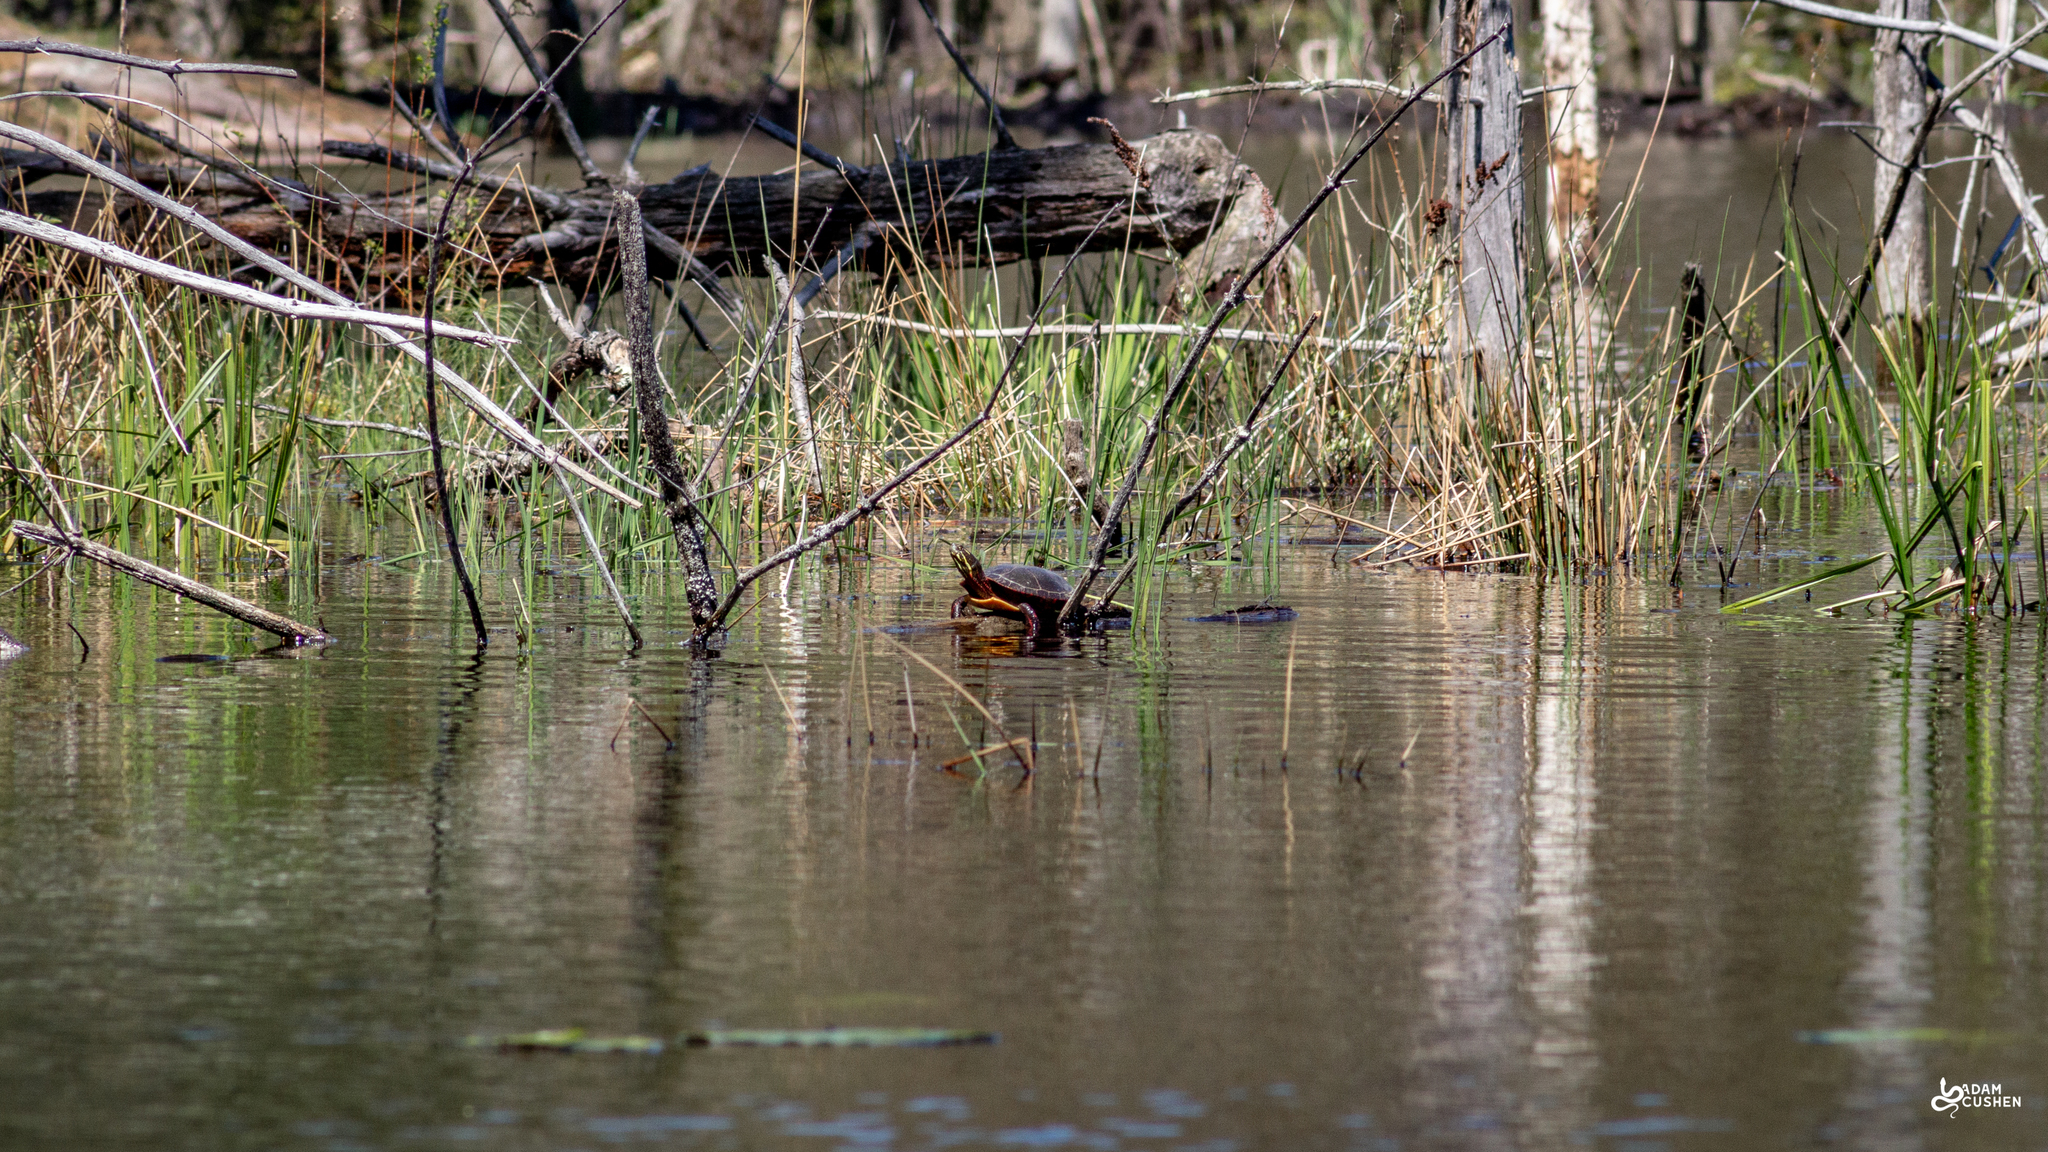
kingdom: Animalia
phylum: Chordata
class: Testudines
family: Emydidae
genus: Chrysemys
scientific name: Chrysemys picta
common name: Painted turtle
